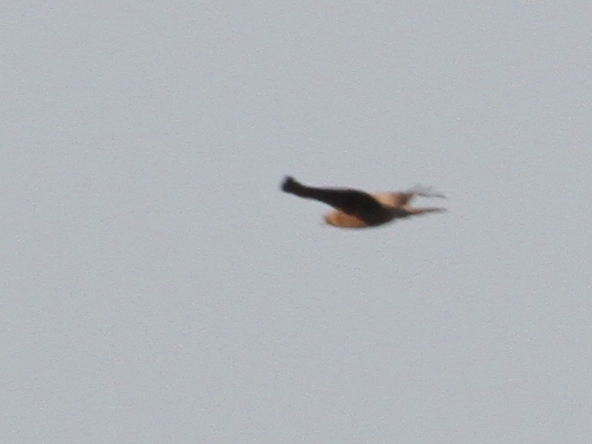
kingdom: Animalia
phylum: Chordata
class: Aves
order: Accipitriformes
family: Accipitridae
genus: Hieraaetus
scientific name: Hieraaetus pennatus
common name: Booted eagle
